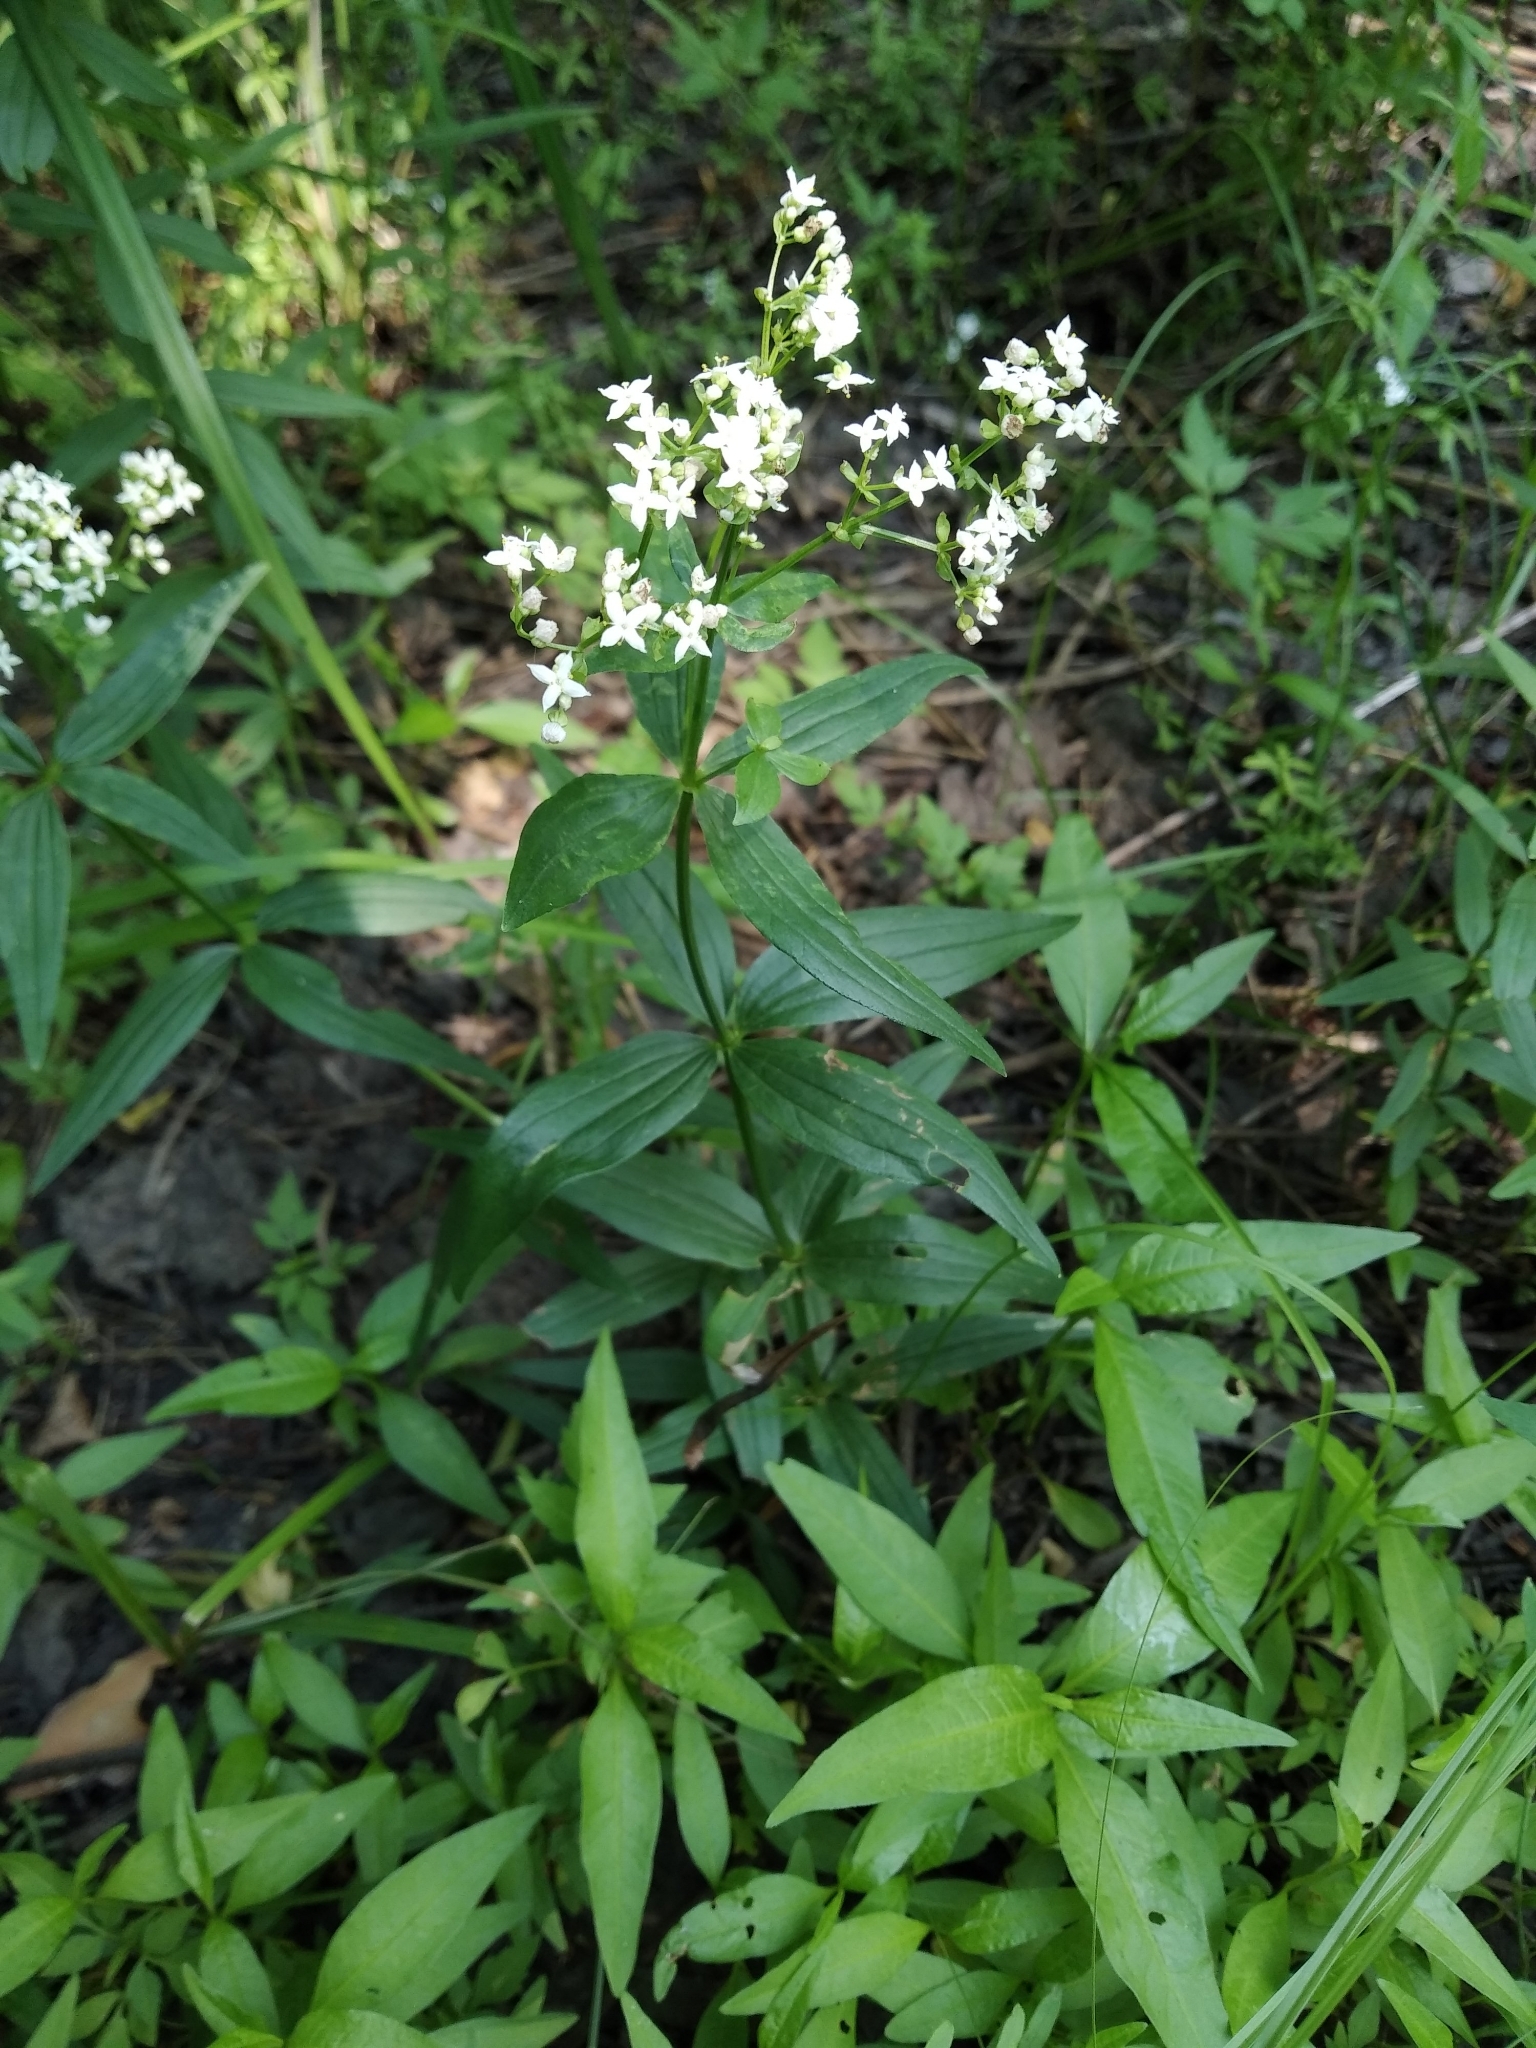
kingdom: Plantae
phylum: Tracheophyta
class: Magnoliopsida
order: Gentianales
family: Rubiaceae
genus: Galium
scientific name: Galium boreale
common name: Northern bedstraw
